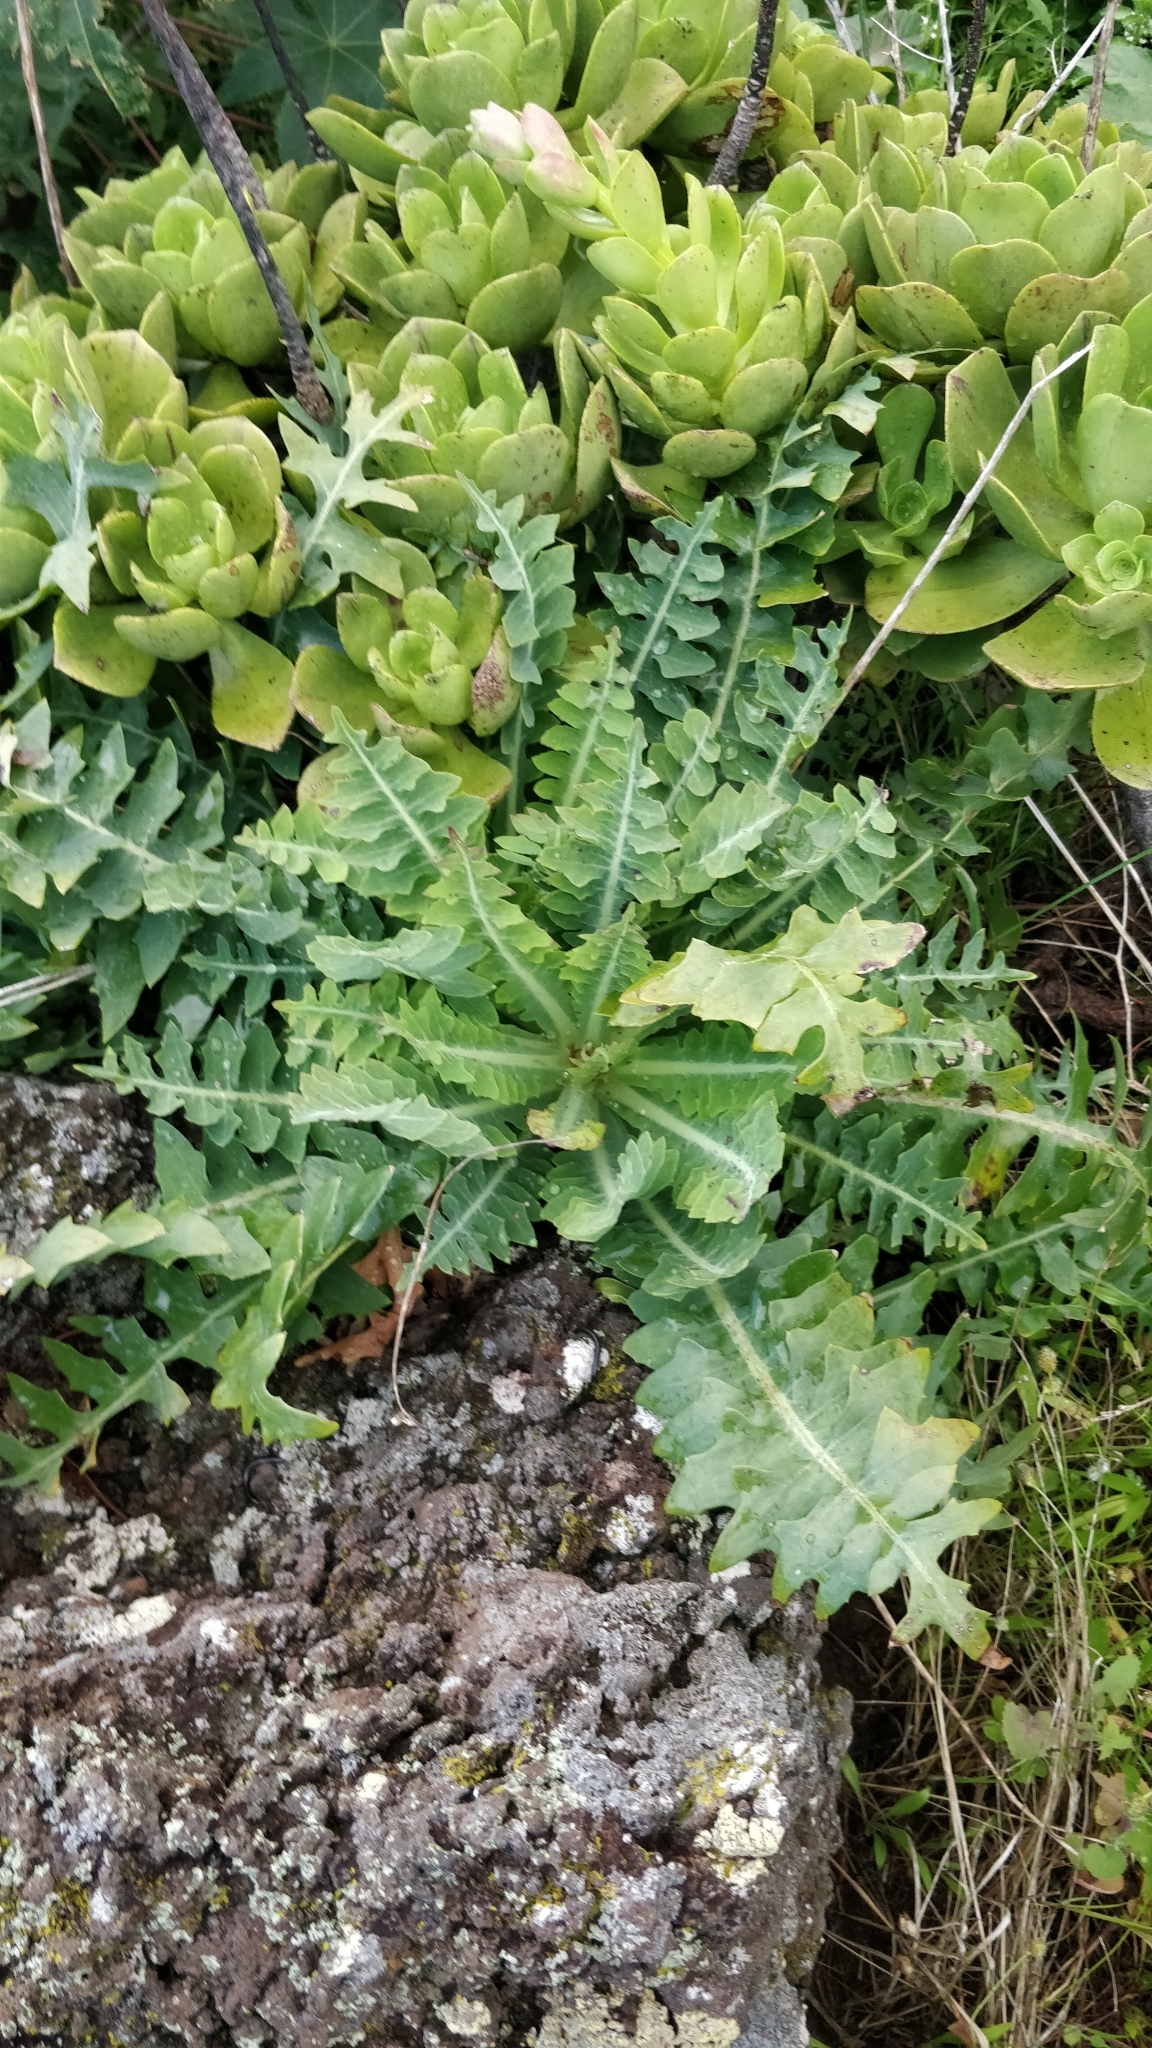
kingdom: Plantae
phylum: Tracheophyta
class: Magnoliopsida
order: Asterales
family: Asteraceae
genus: Sonchus
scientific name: Sonchus ustulatus
